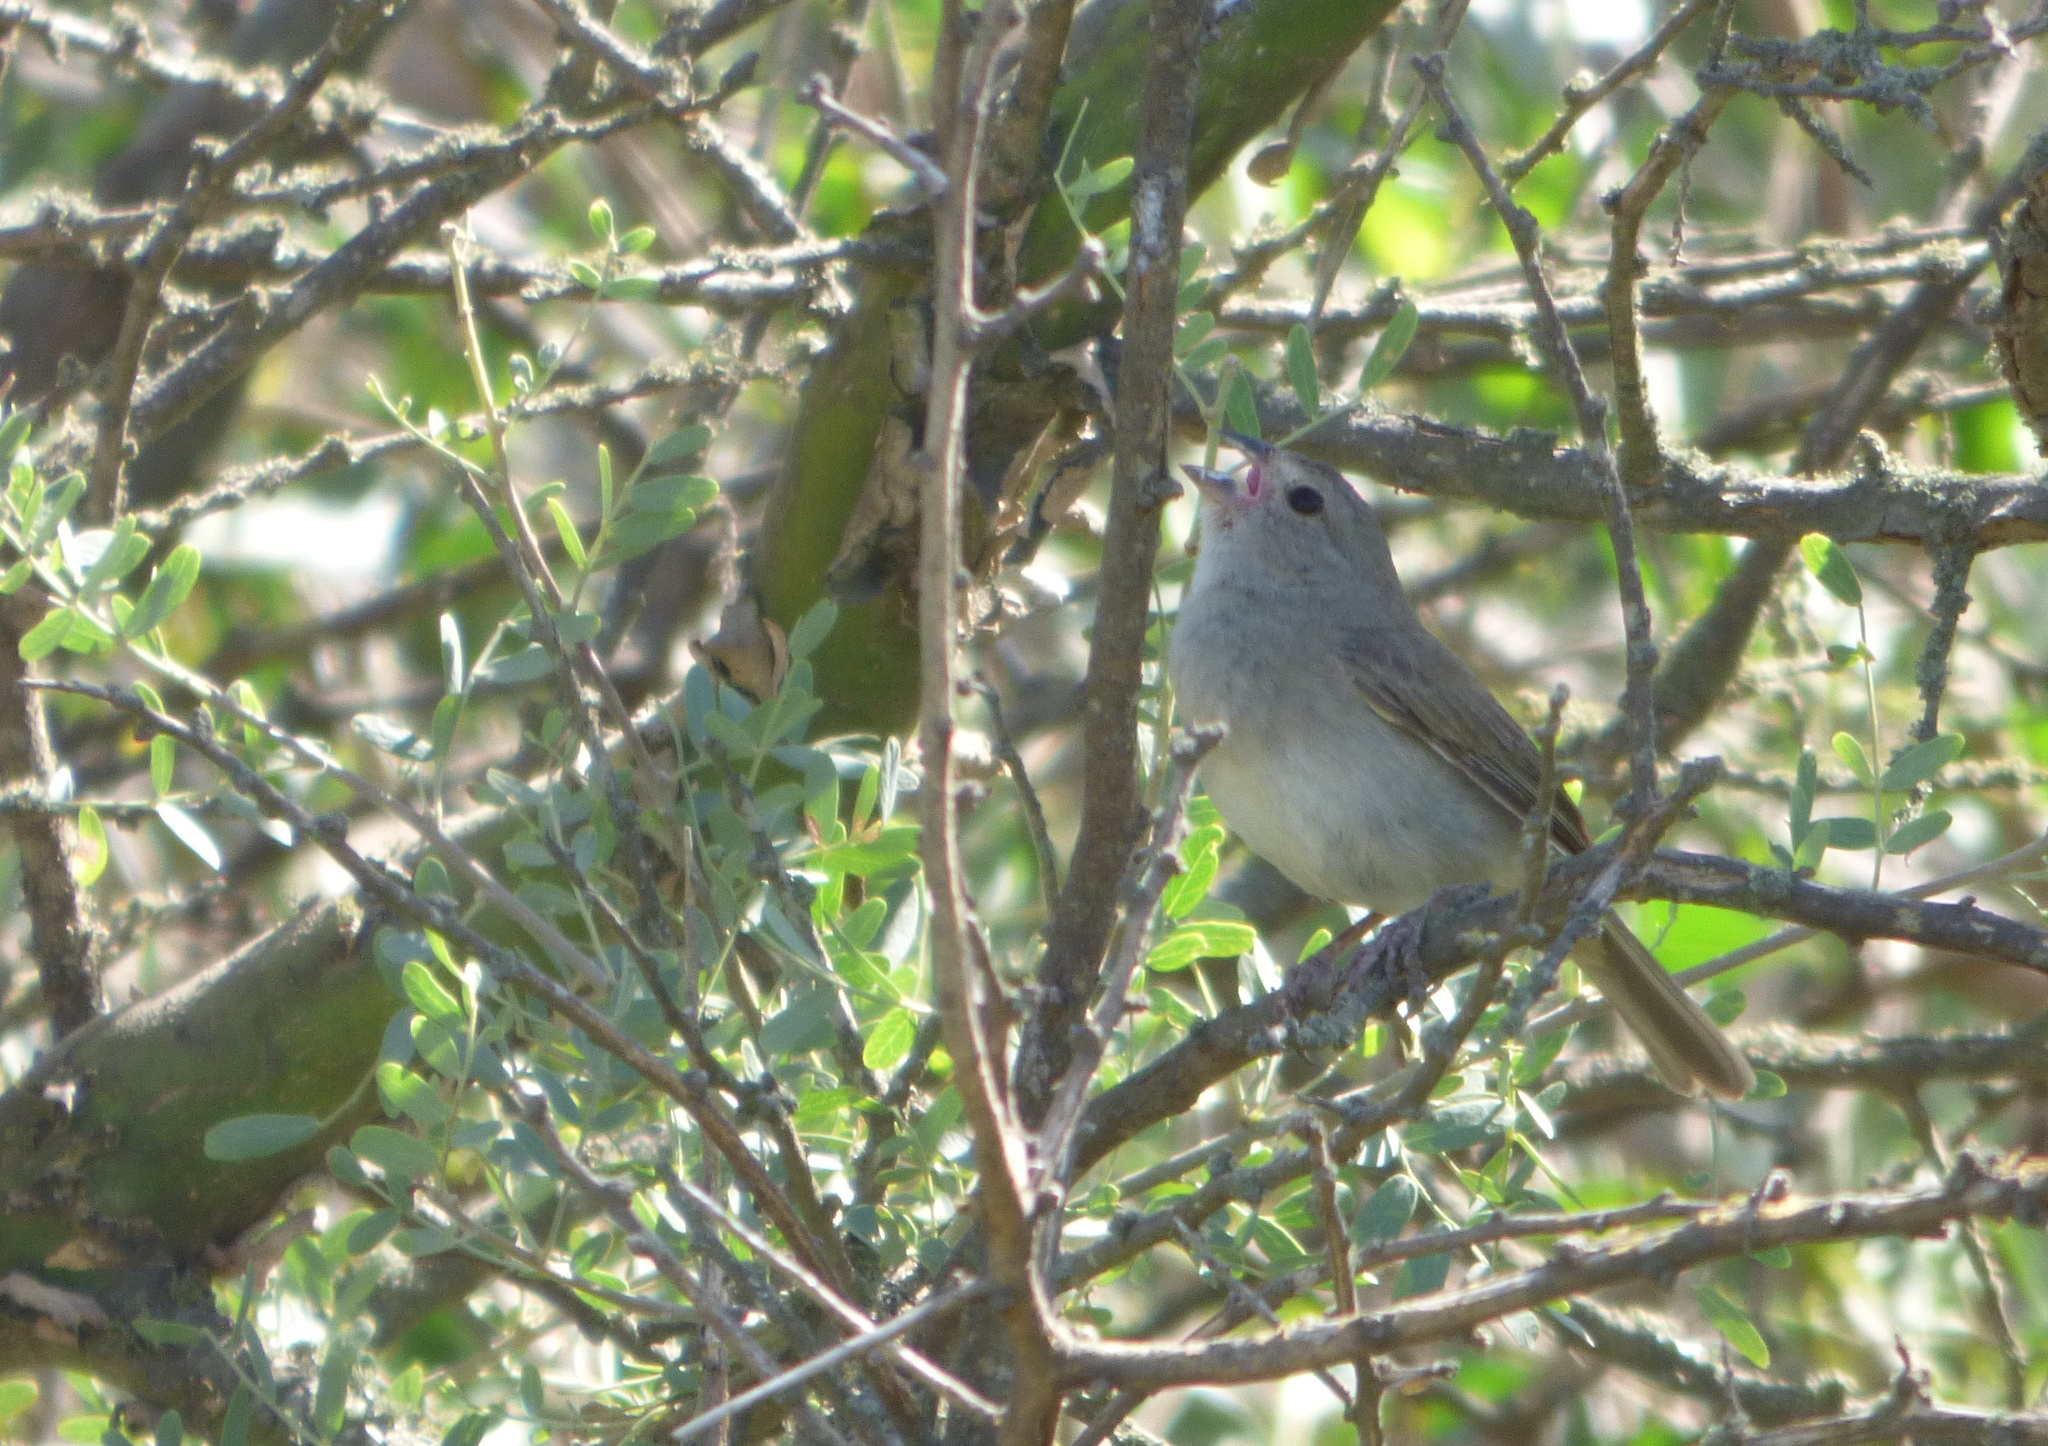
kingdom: Animalia
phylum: Chordata
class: Aves
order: Passeriformes
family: Thraupidae
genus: Asemospiza
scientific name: Asemospiza obscura
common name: Dull-colored grassquit
